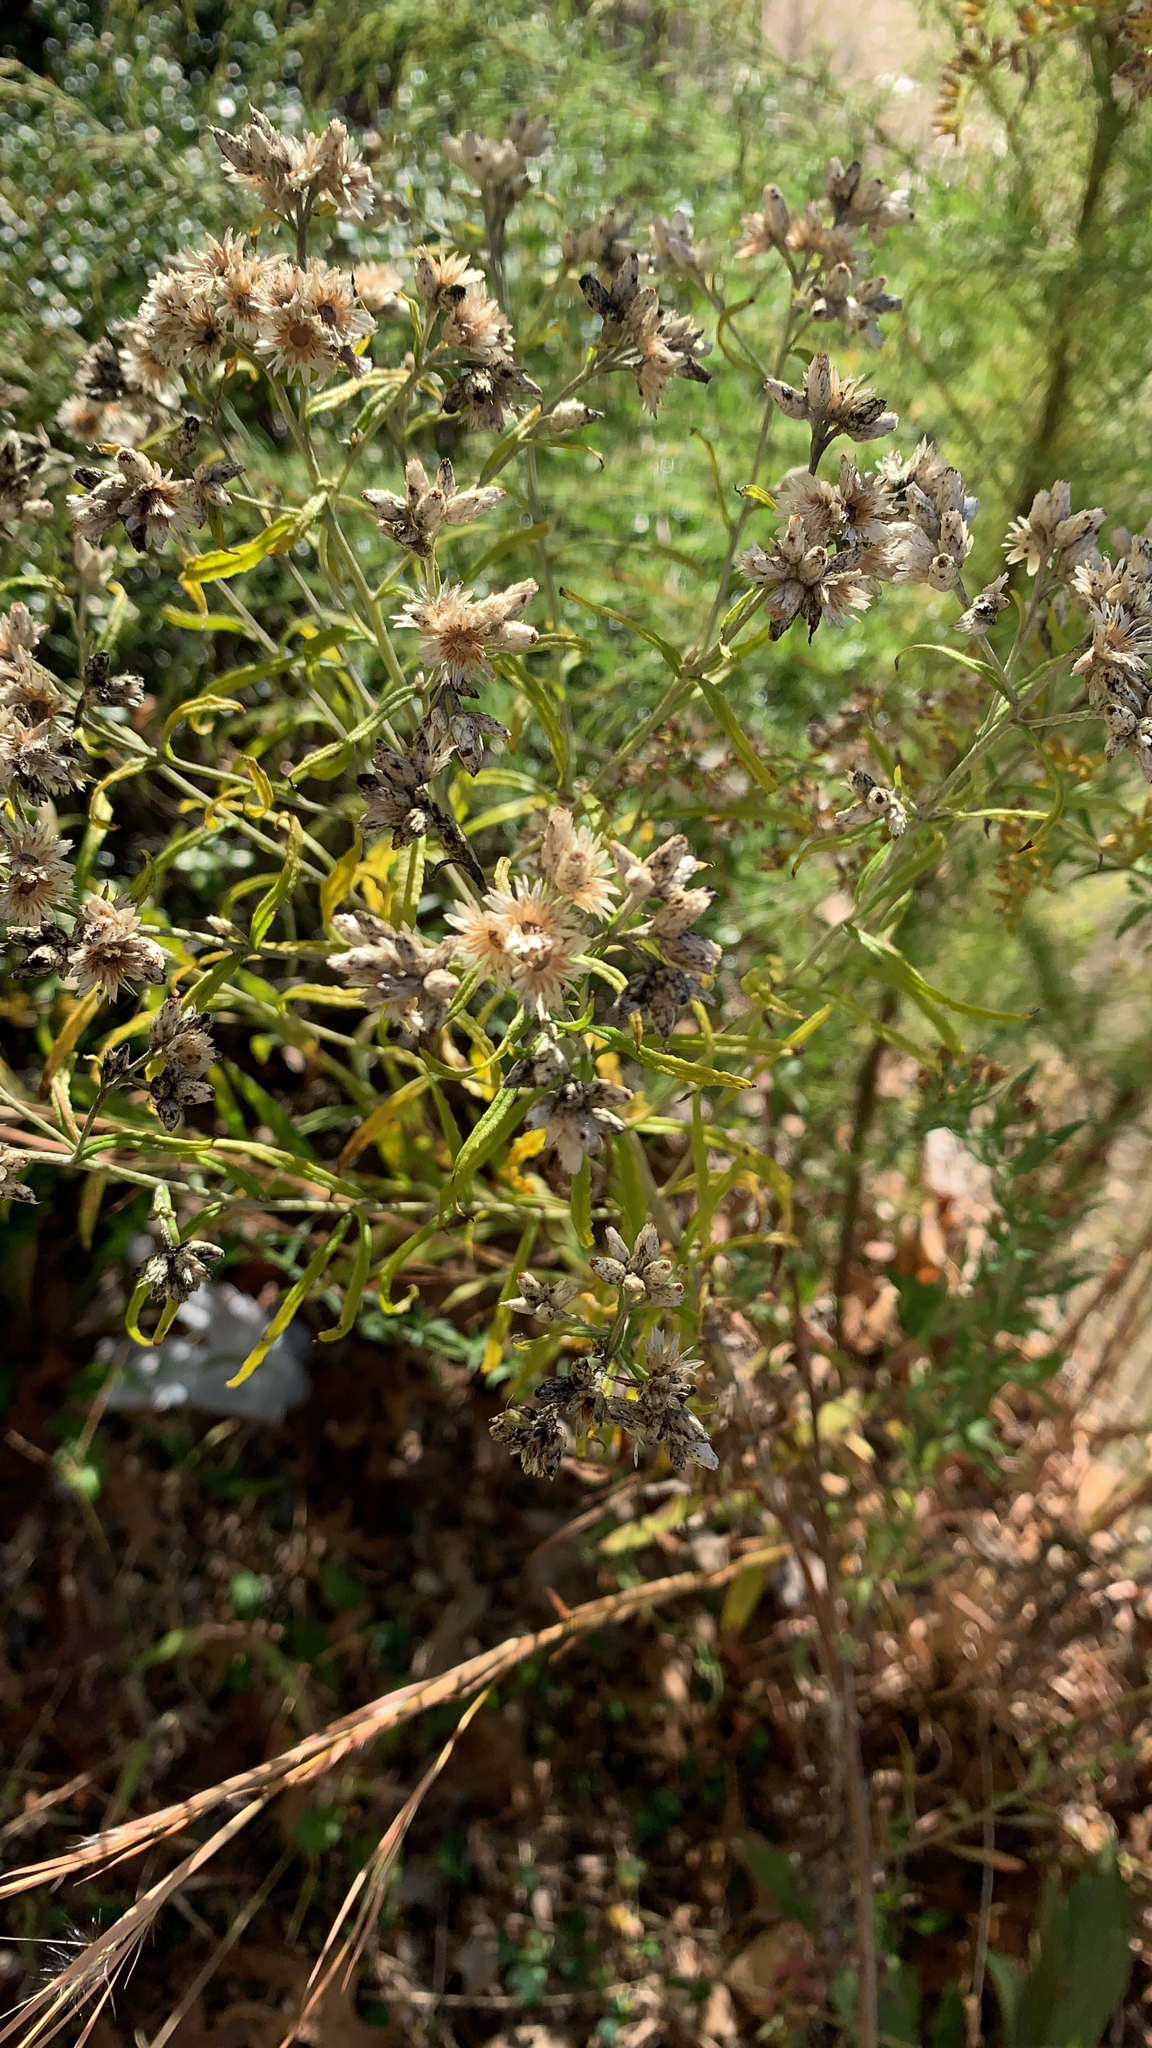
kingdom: Plantae
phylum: Tracheophyta
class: Magnoliopsida
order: Asterales
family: Asteraceae
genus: Pseudognaphalium
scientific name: Pseudognaphalium obtusifolium
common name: Eastern rabbit-tobacco
